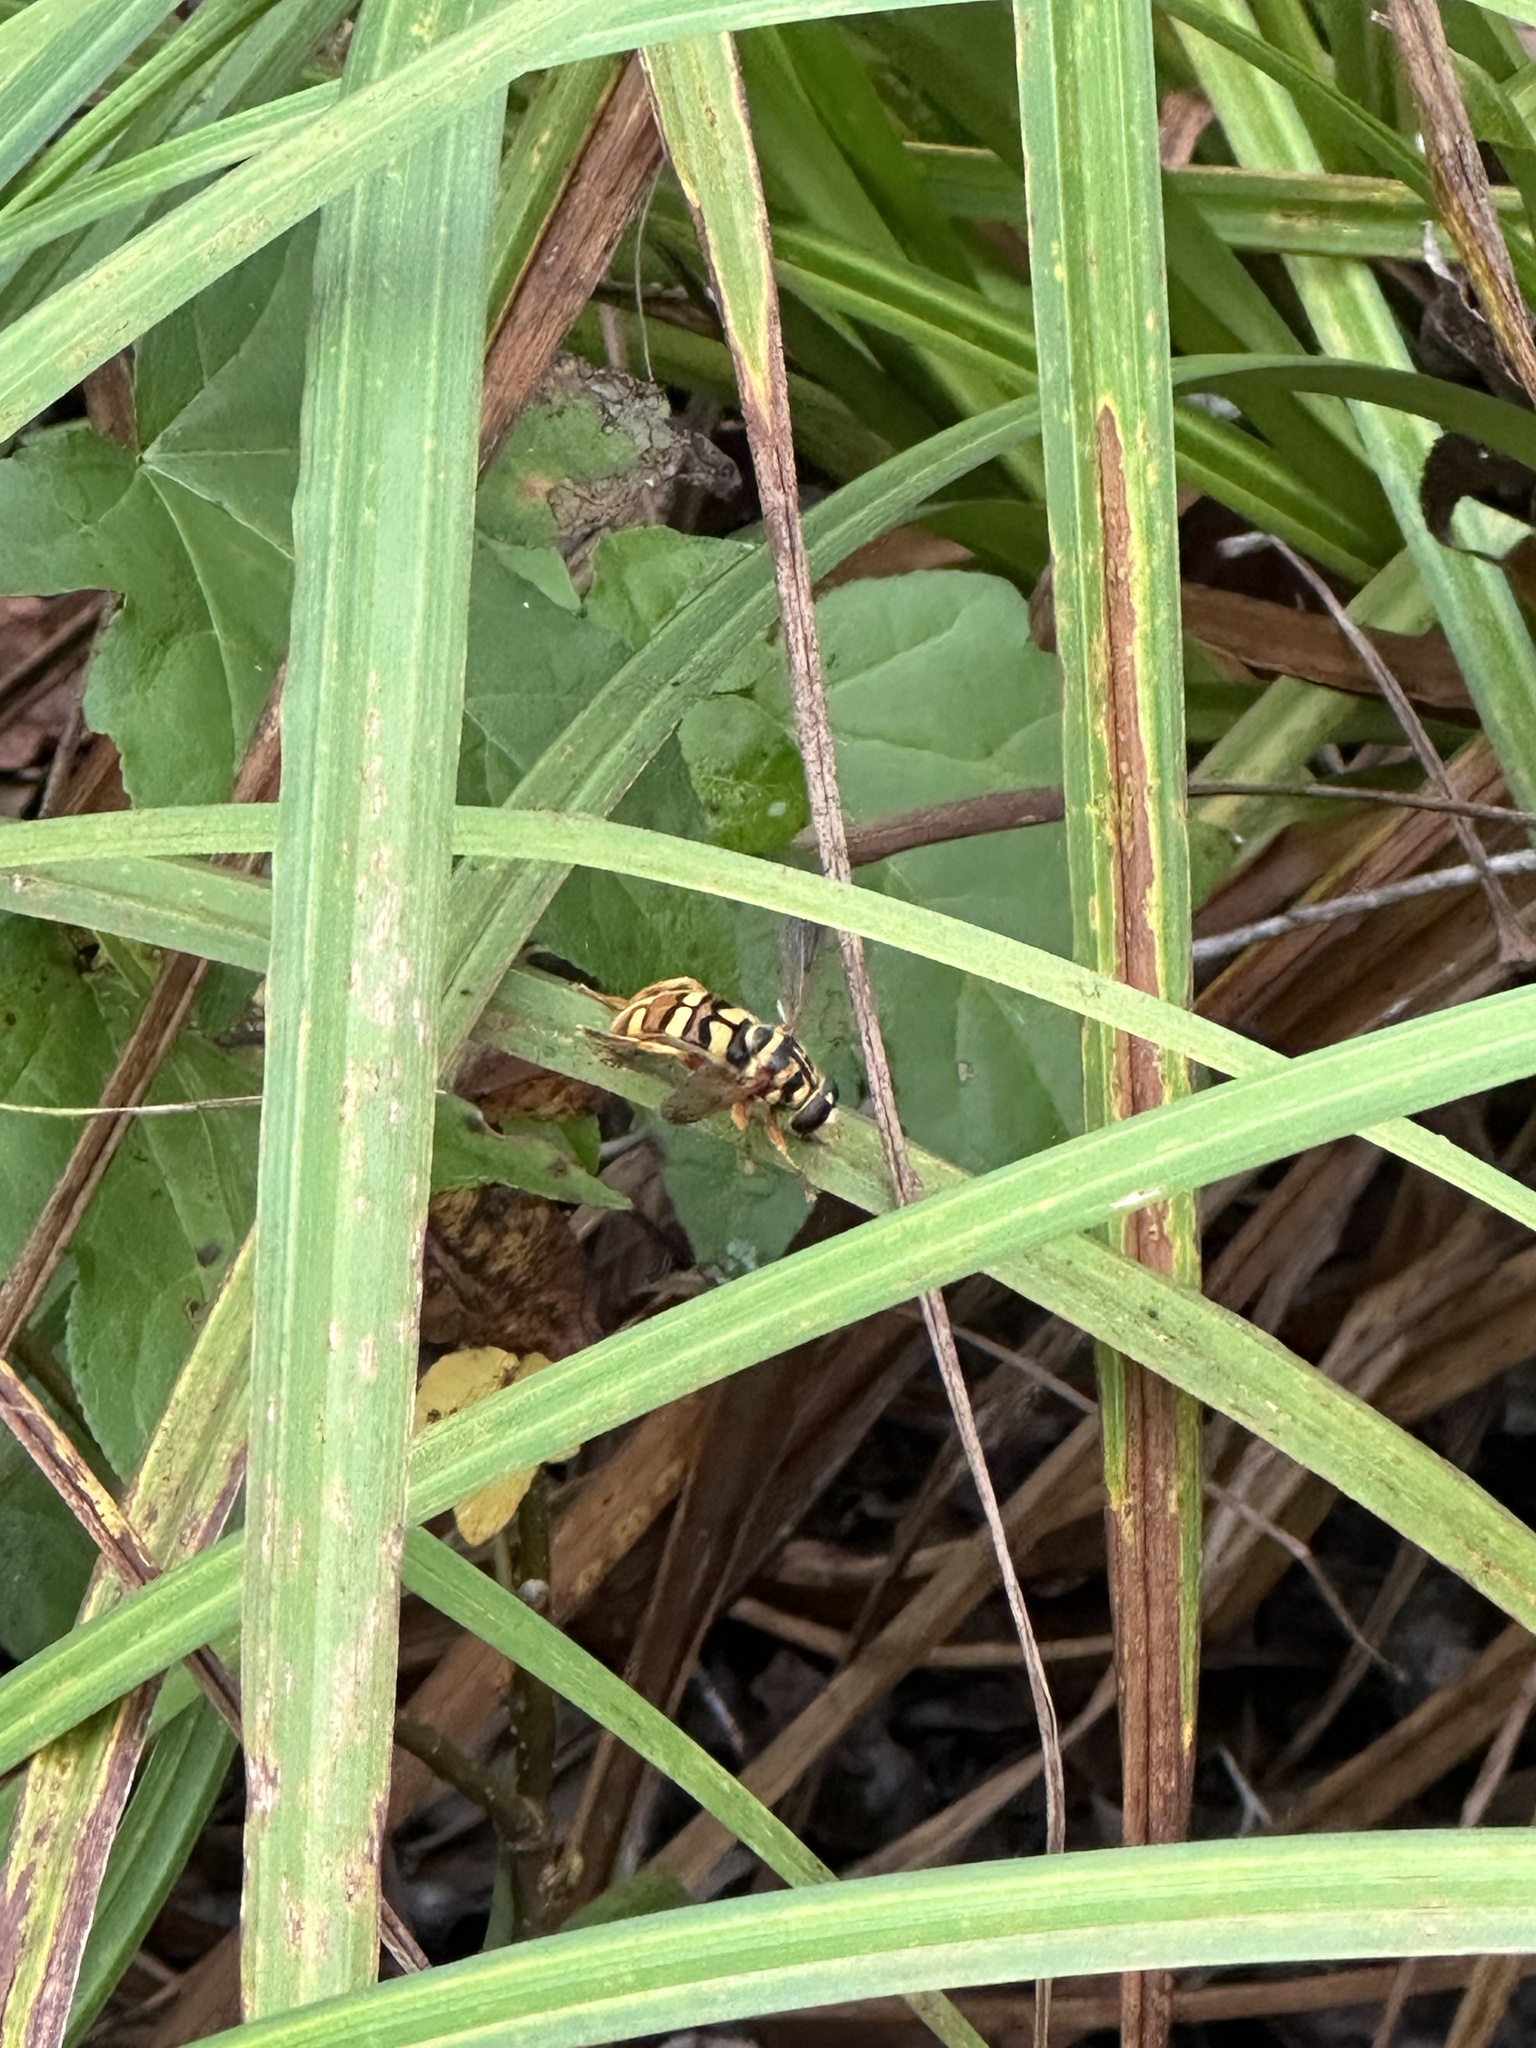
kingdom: Animalia
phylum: Arthropoda
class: Insecta
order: Diptera
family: Syrphidae
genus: Milesia
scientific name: Milesia virginiensis
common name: Virginia giant
